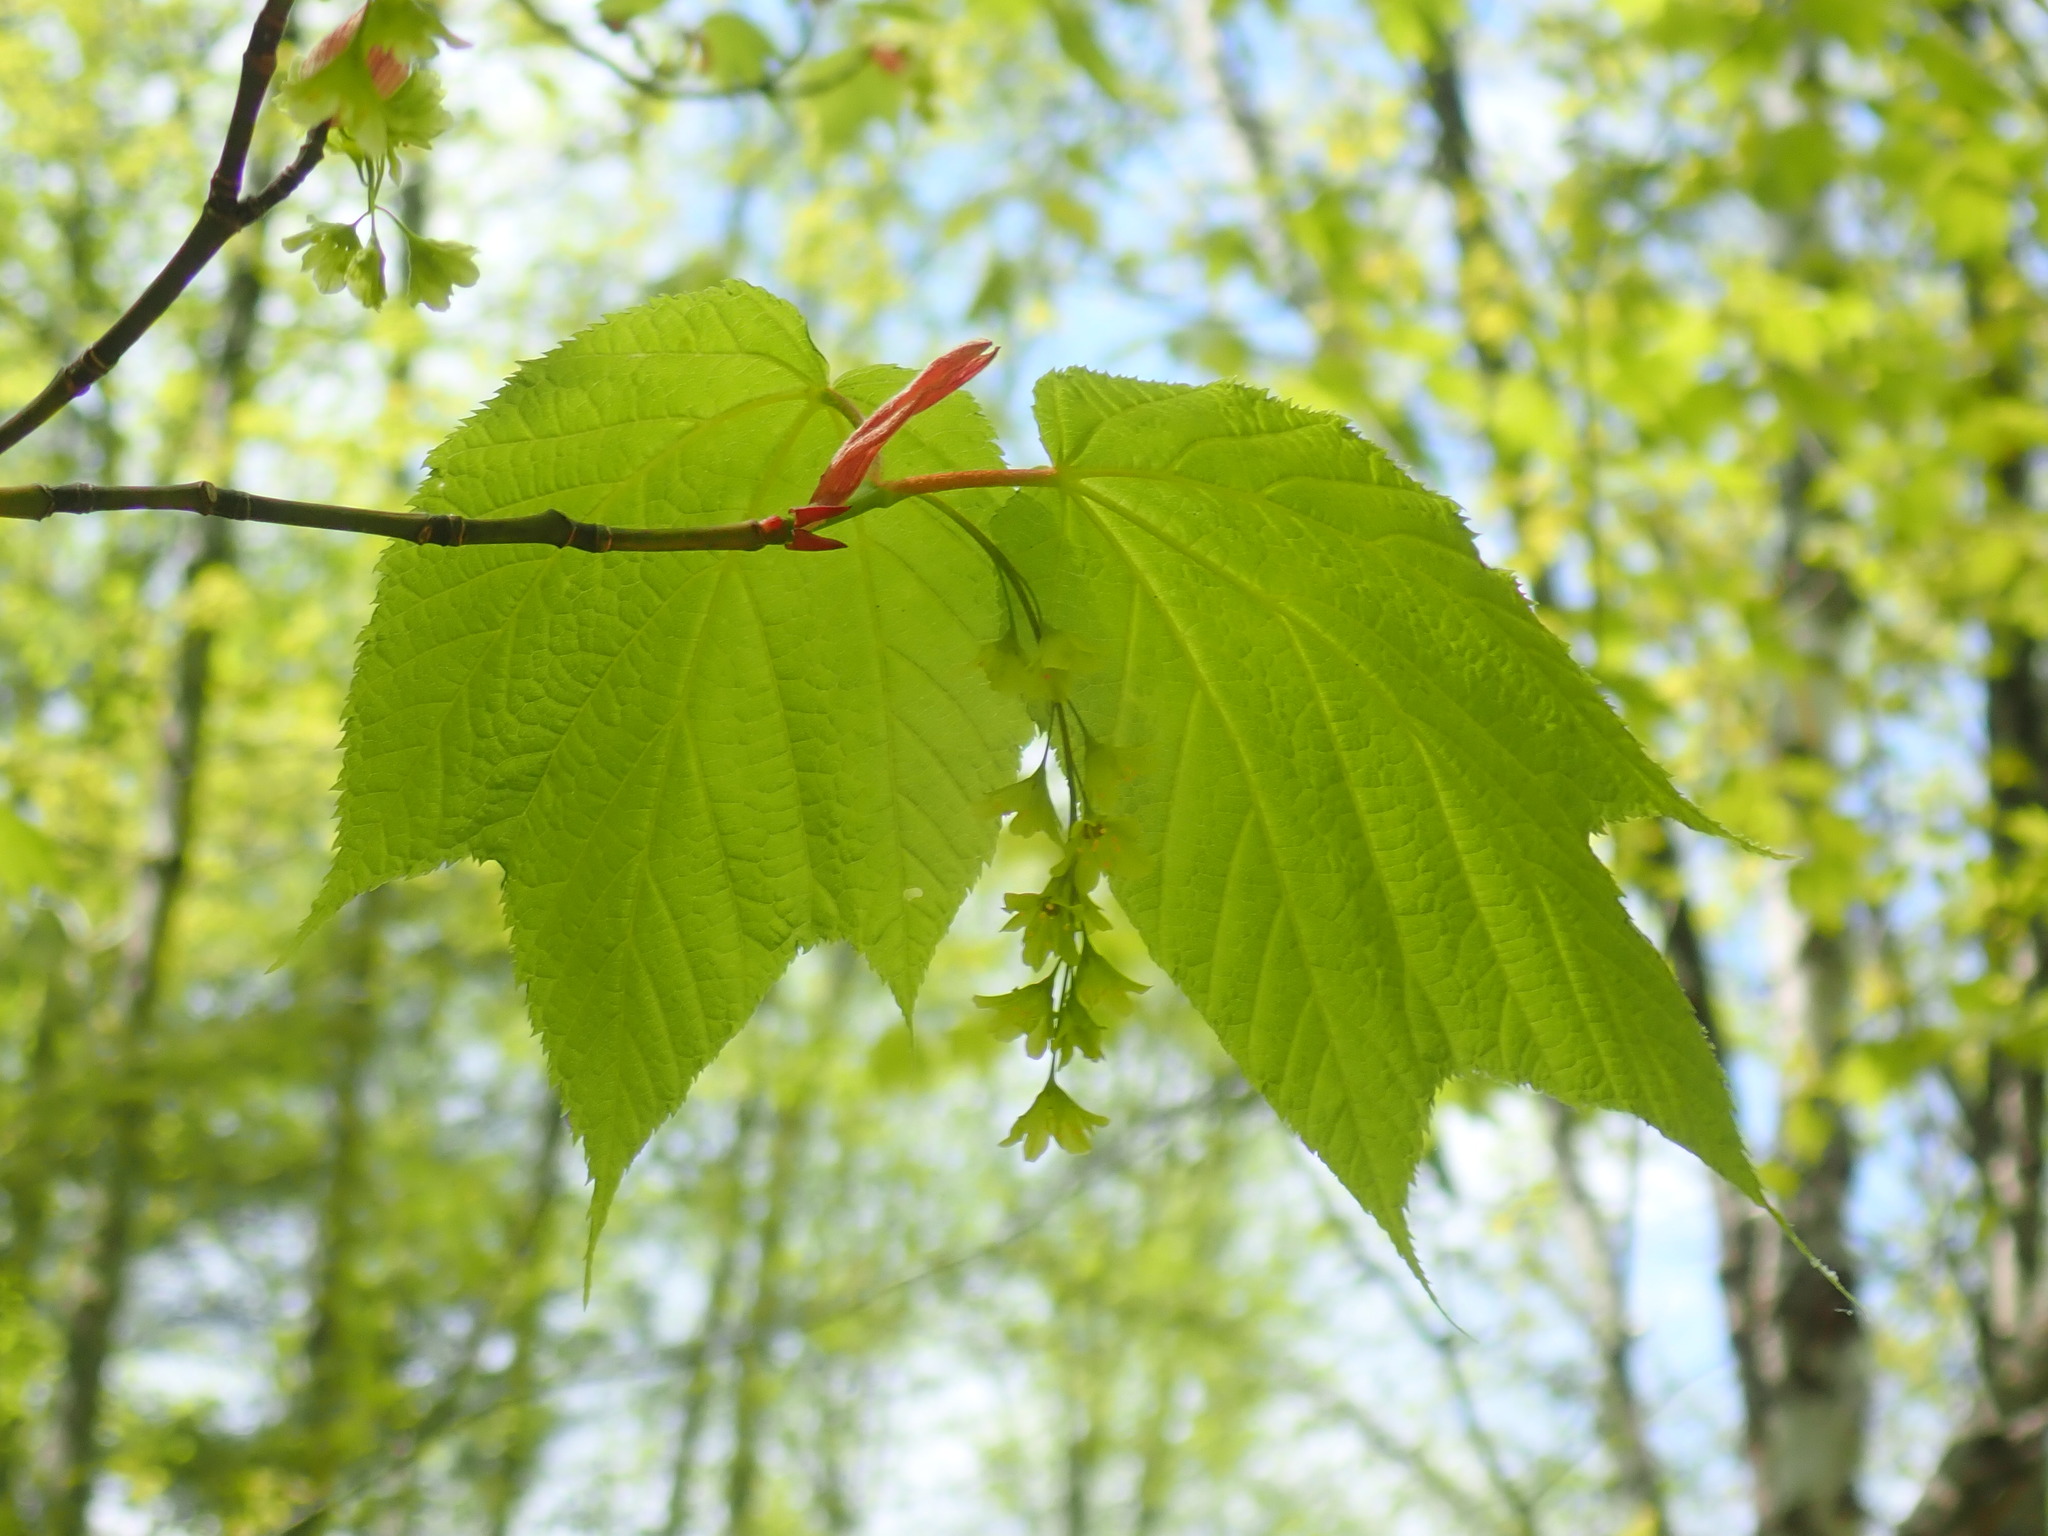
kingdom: Plantae
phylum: Tracheophyta
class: Magnoliopsida
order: Sapindales
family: Sapindaceae
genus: Acer
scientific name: Acer pensylvanicum
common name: Moosewood
